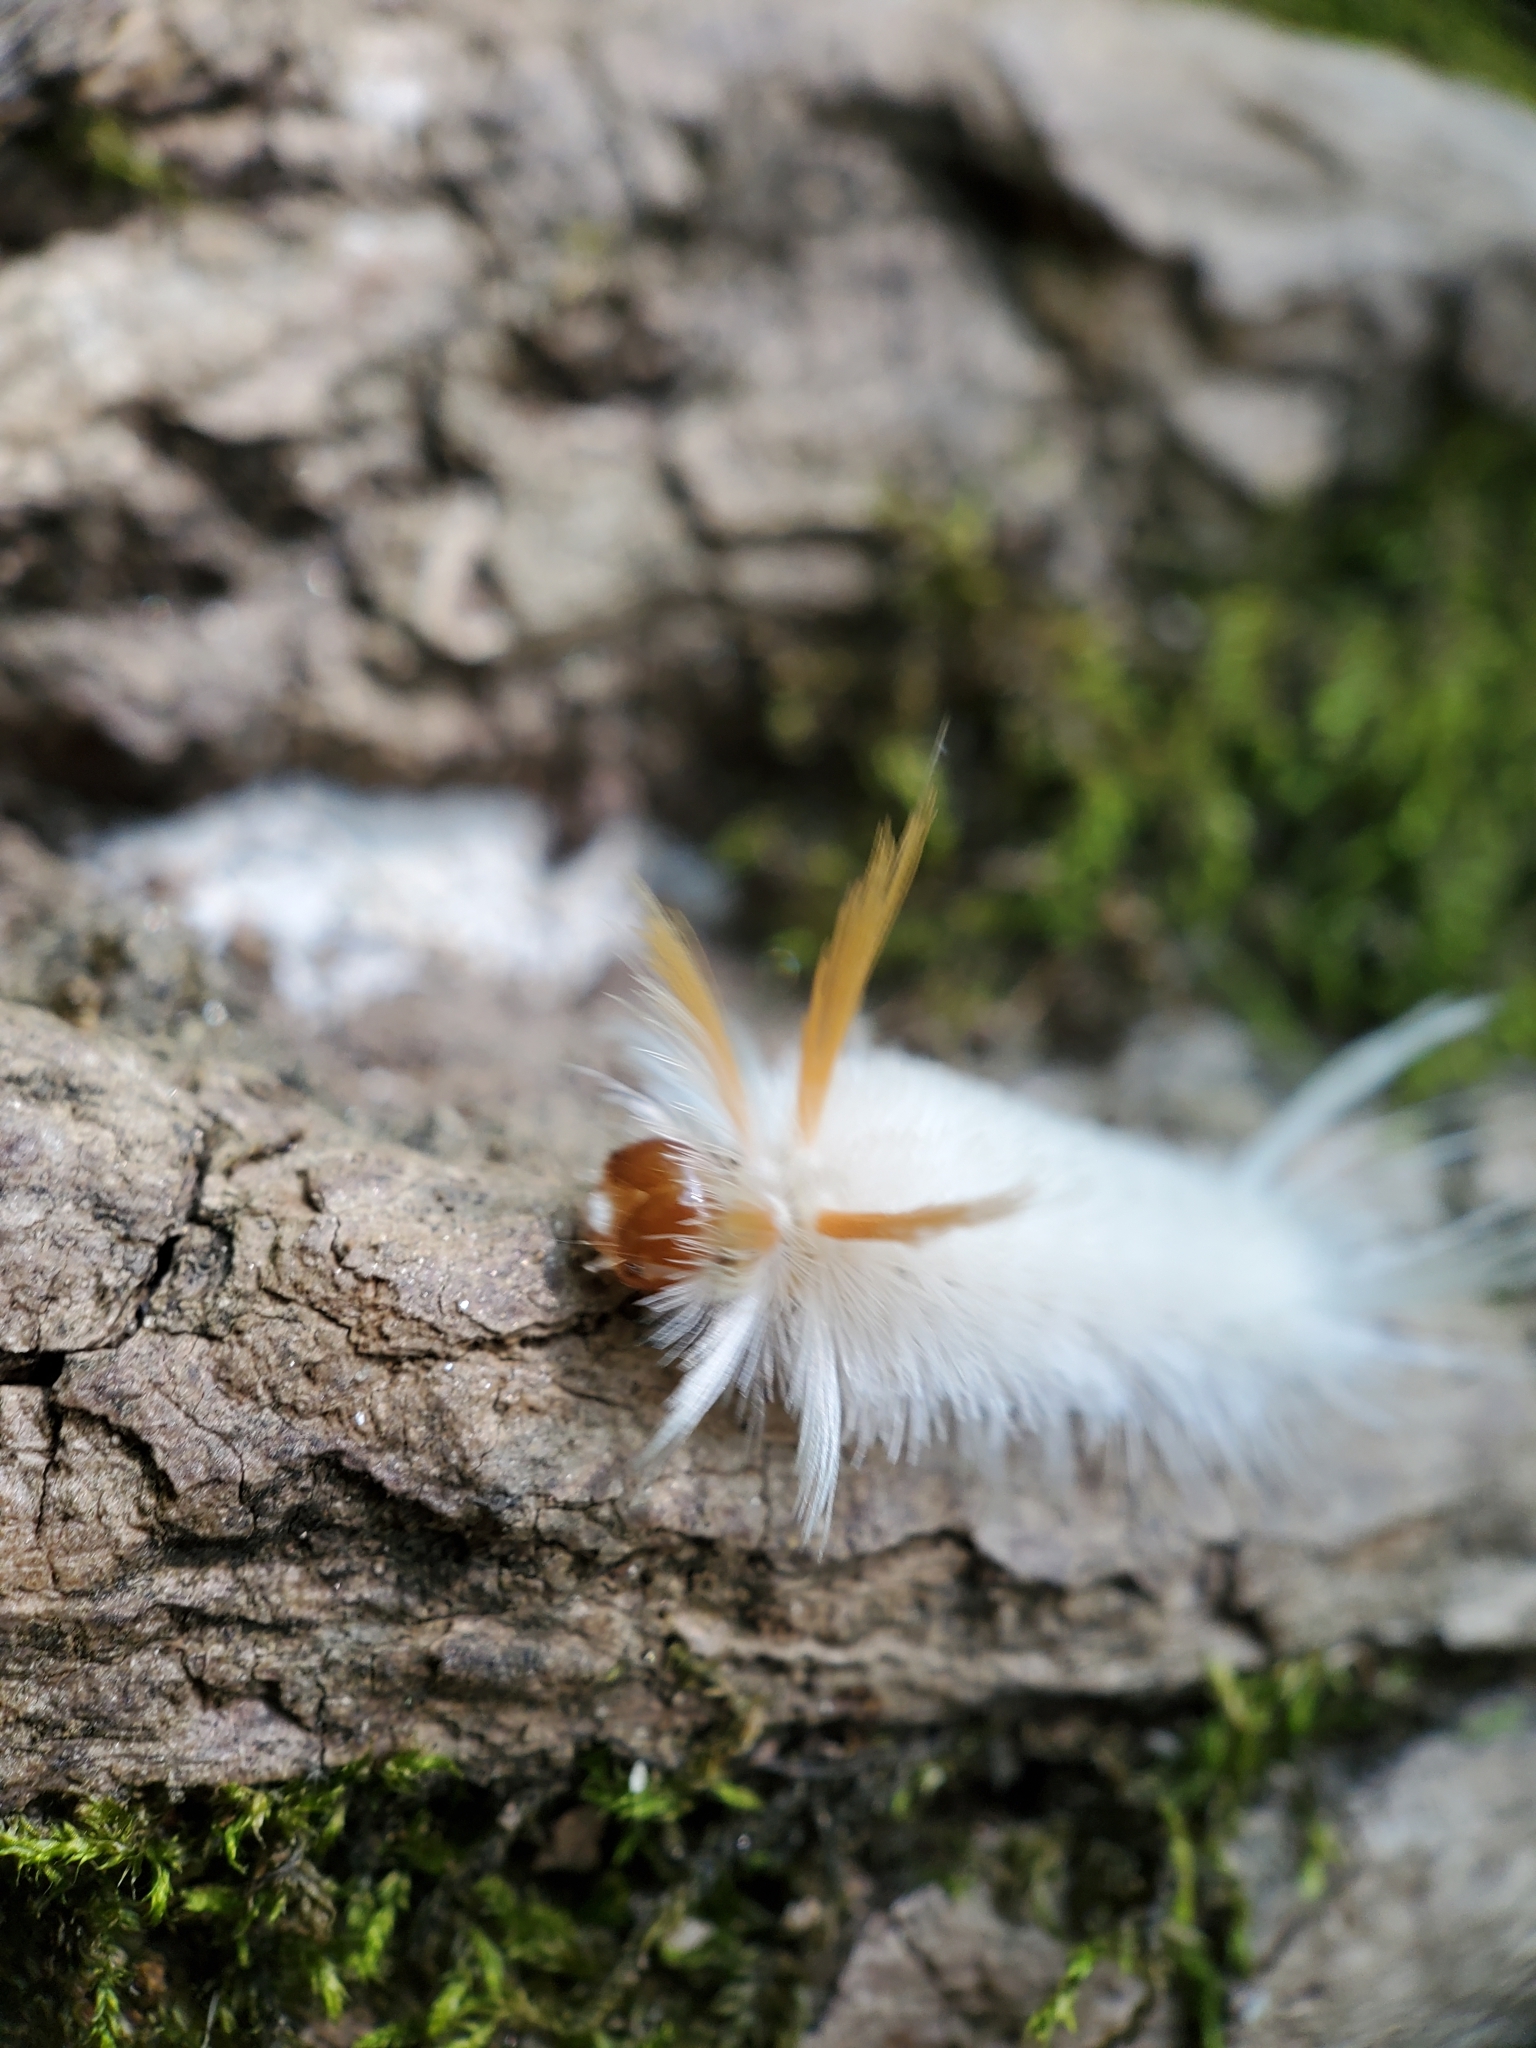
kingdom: Animalia
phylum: Arthropoda
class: Insecta
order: Lepidoptera
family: Erebidae
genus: Halysidota
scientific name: Halysidota harrisii
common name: Sycamore tussock moth
